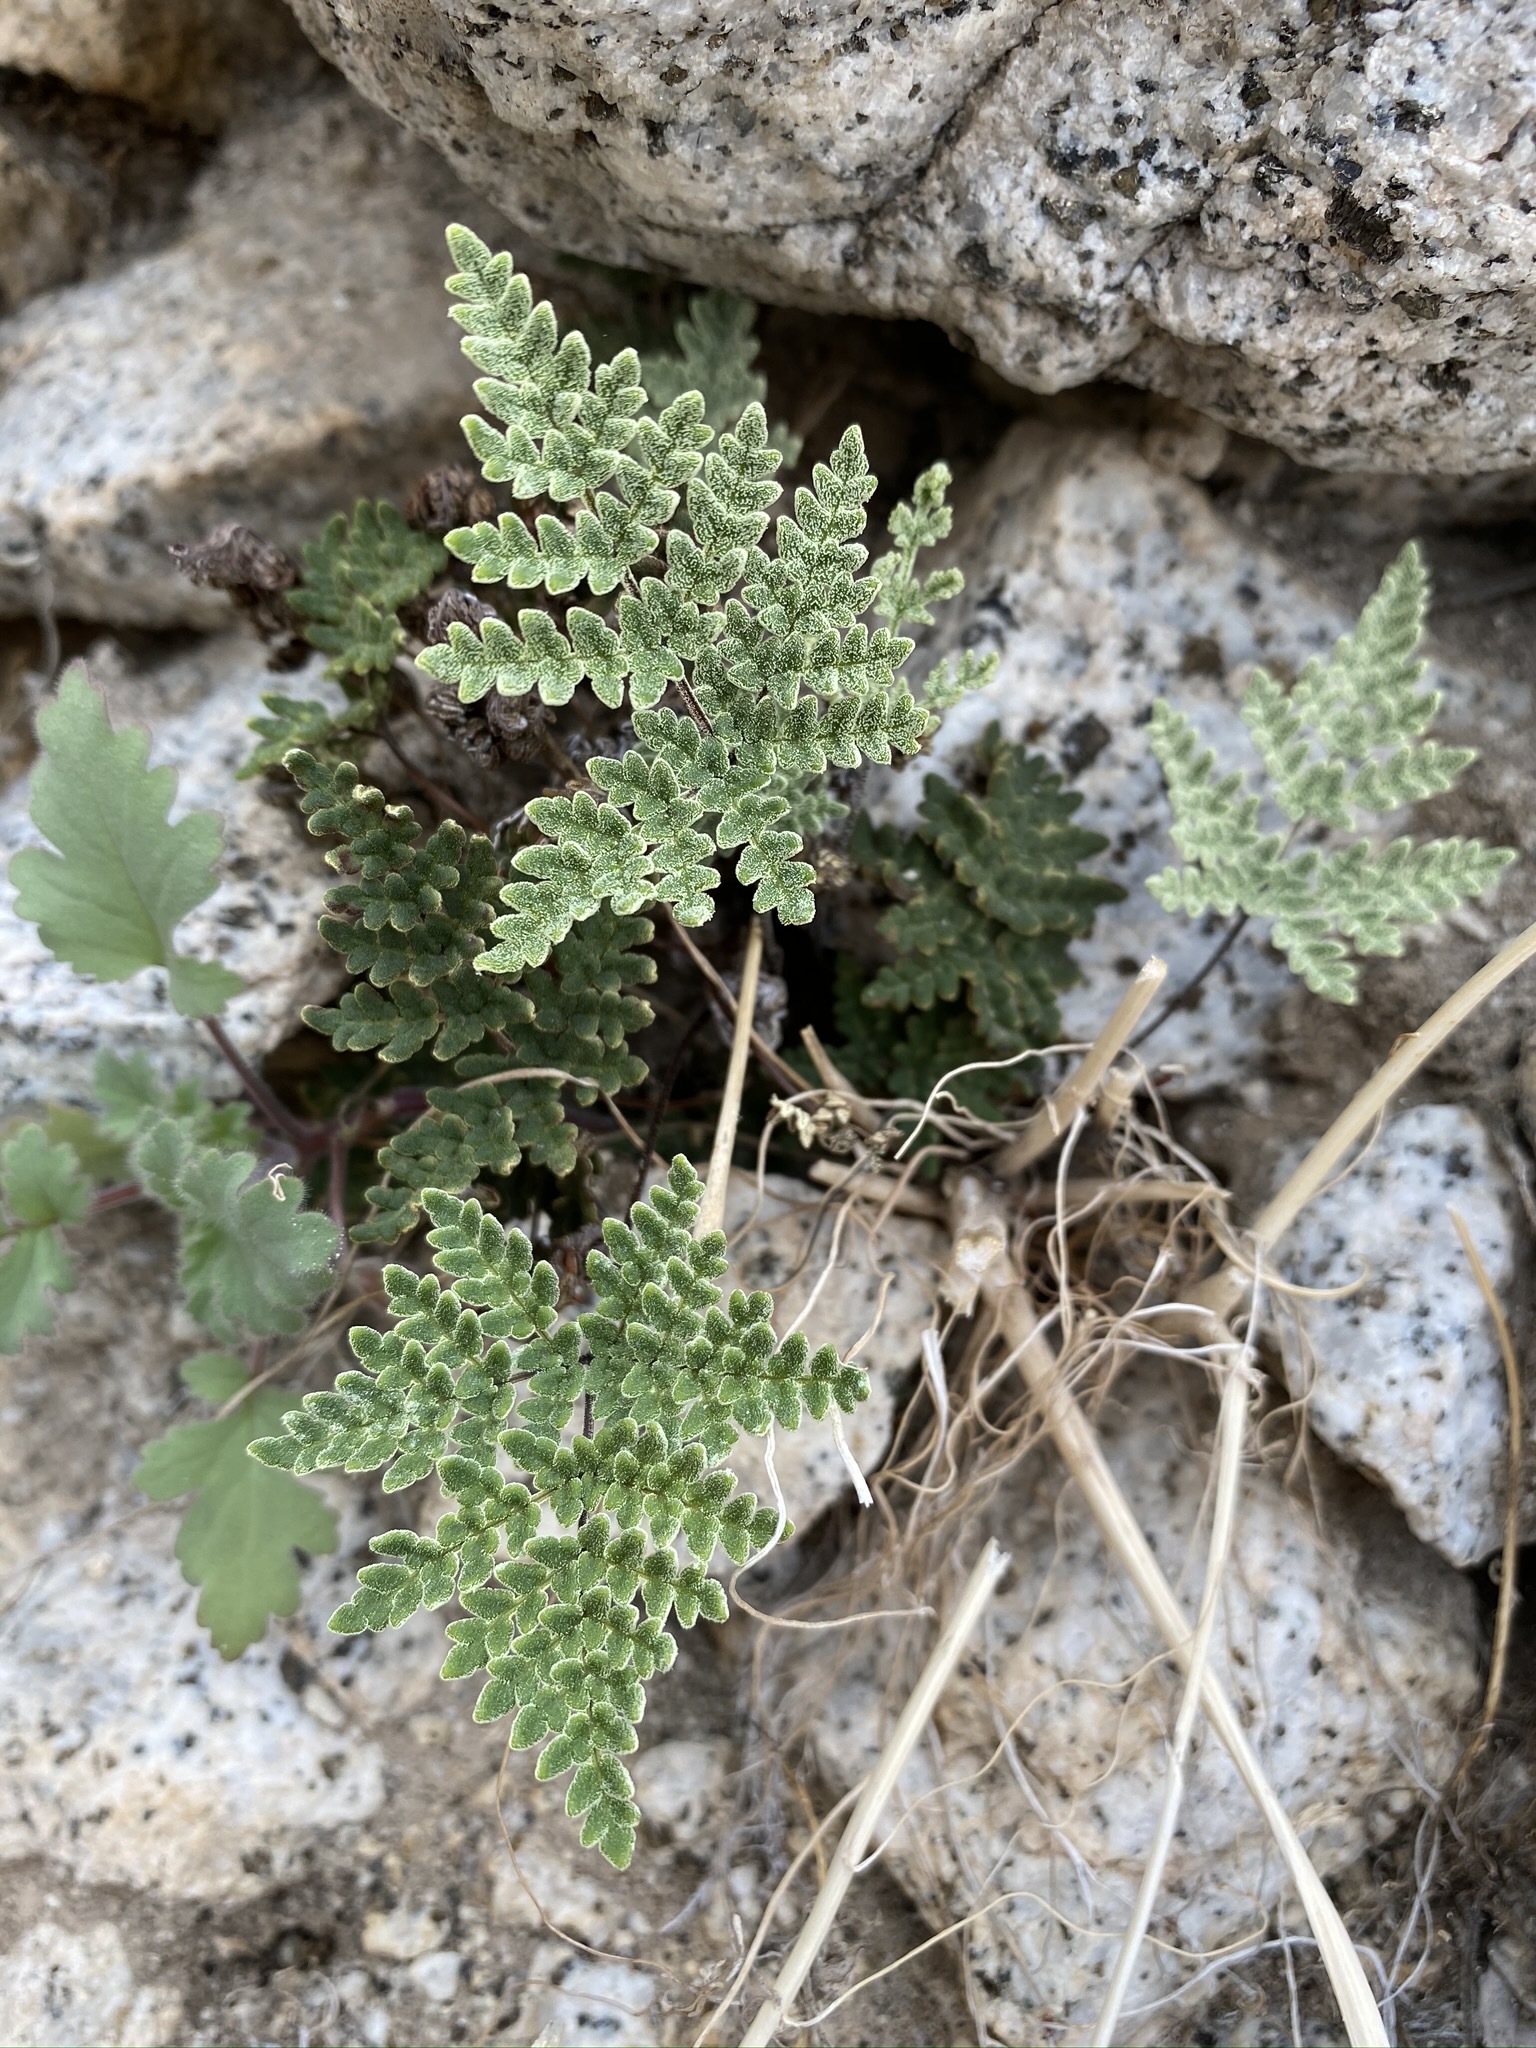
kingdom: Plantae
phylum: Tracheophyta
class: Polypodiopsida
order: Polypodiales
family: Pteridaceae
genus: Notholaena
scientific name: Notholaena californica
